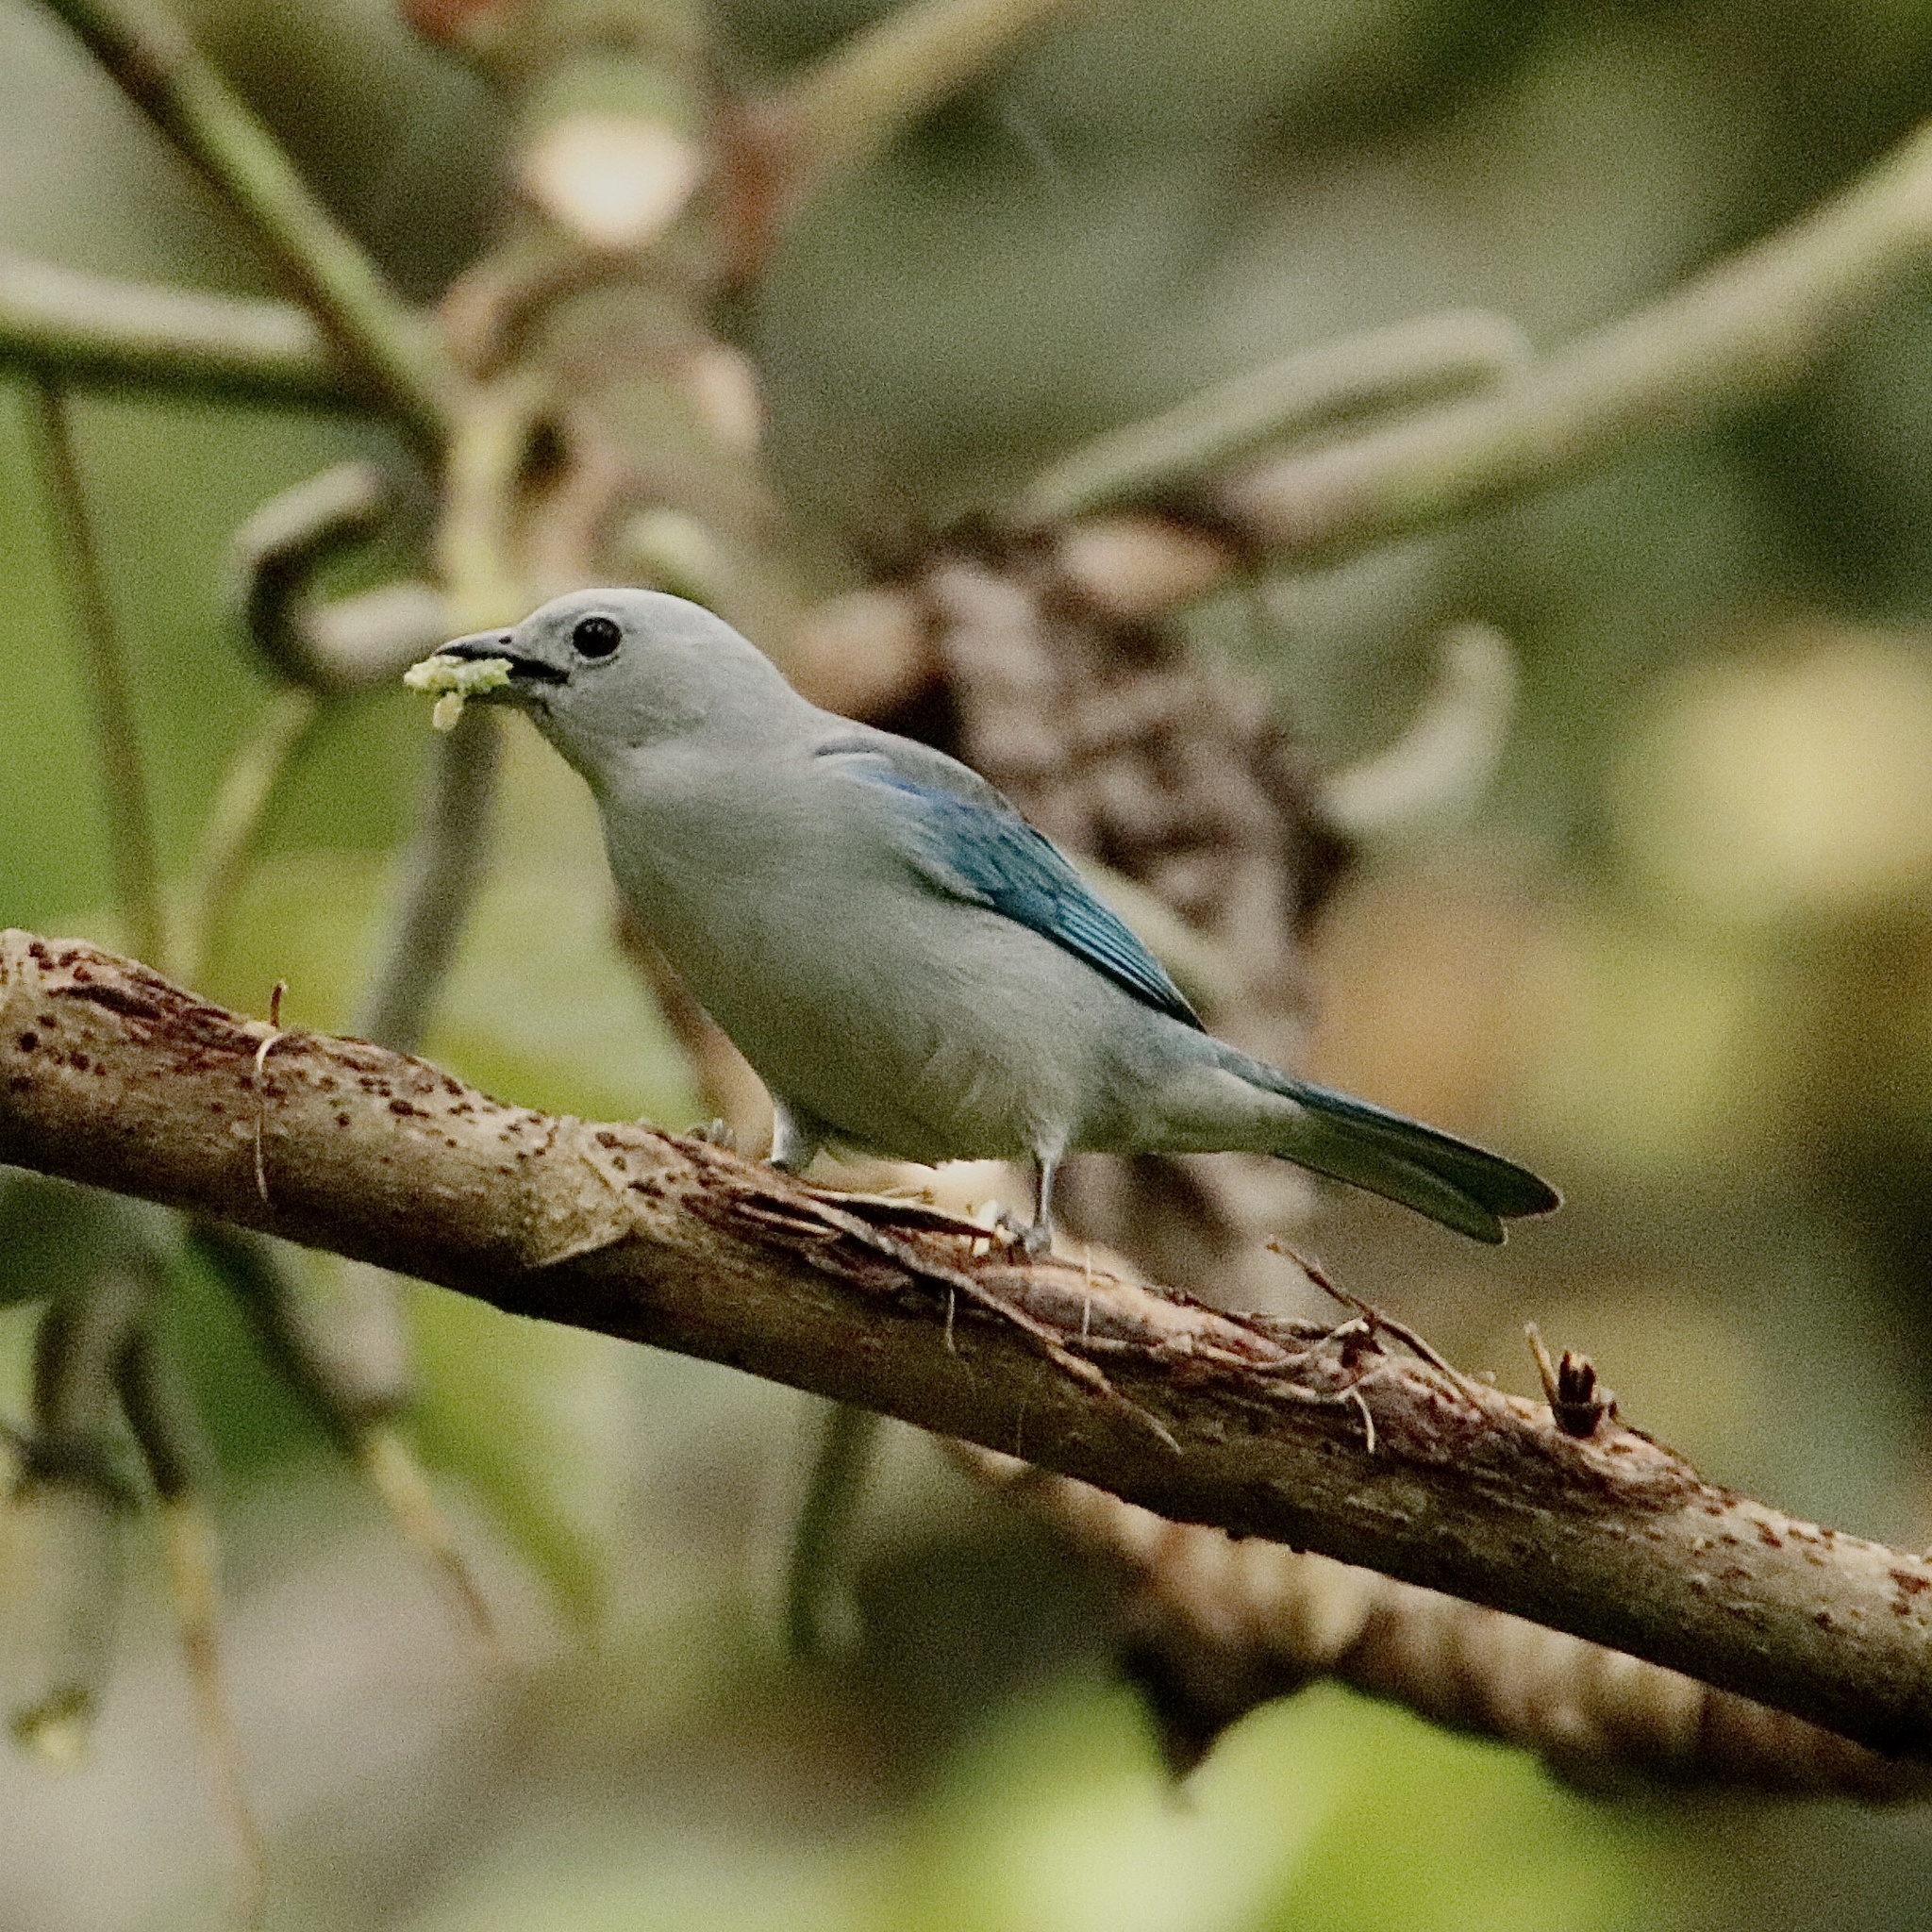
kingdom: Animalia
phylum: Chordata
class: Aves
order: Passeriformes
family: Thraupidae
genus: Thraupis
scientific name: Thraupis episcopus
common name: Blue-grey tanager
